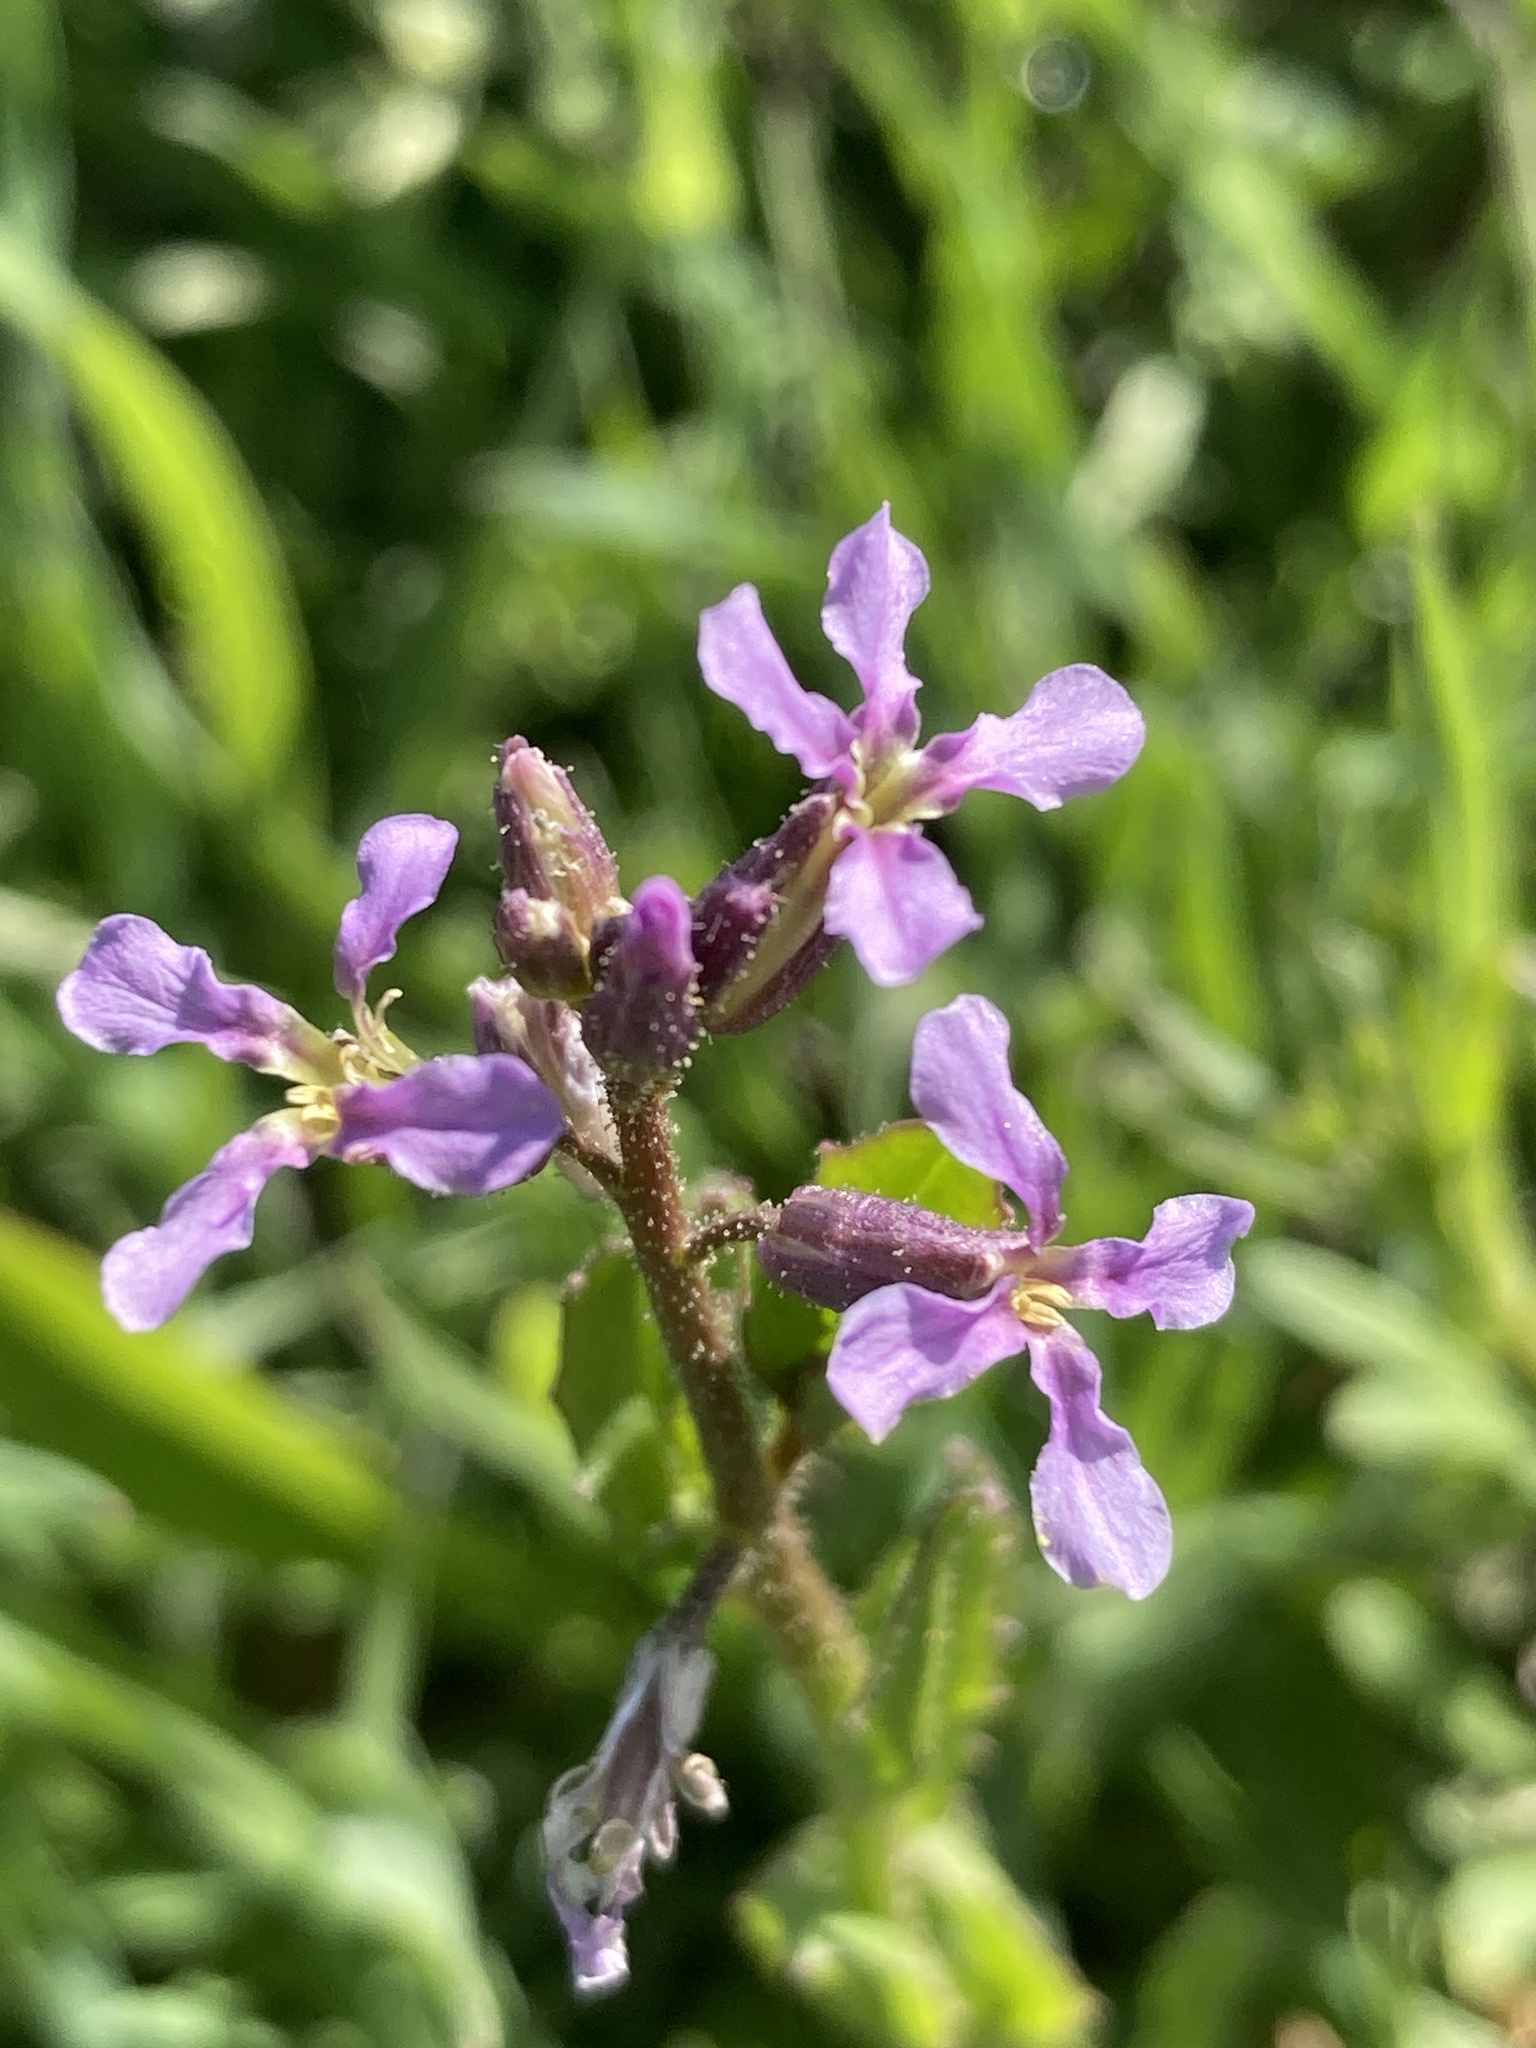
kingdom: Plantae
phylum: Tracheophyta
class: Magnoliopsida
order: Brassicales
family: Brassicaceae
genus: Chorispora
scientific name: Chorispora tenella
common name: Crossflower
